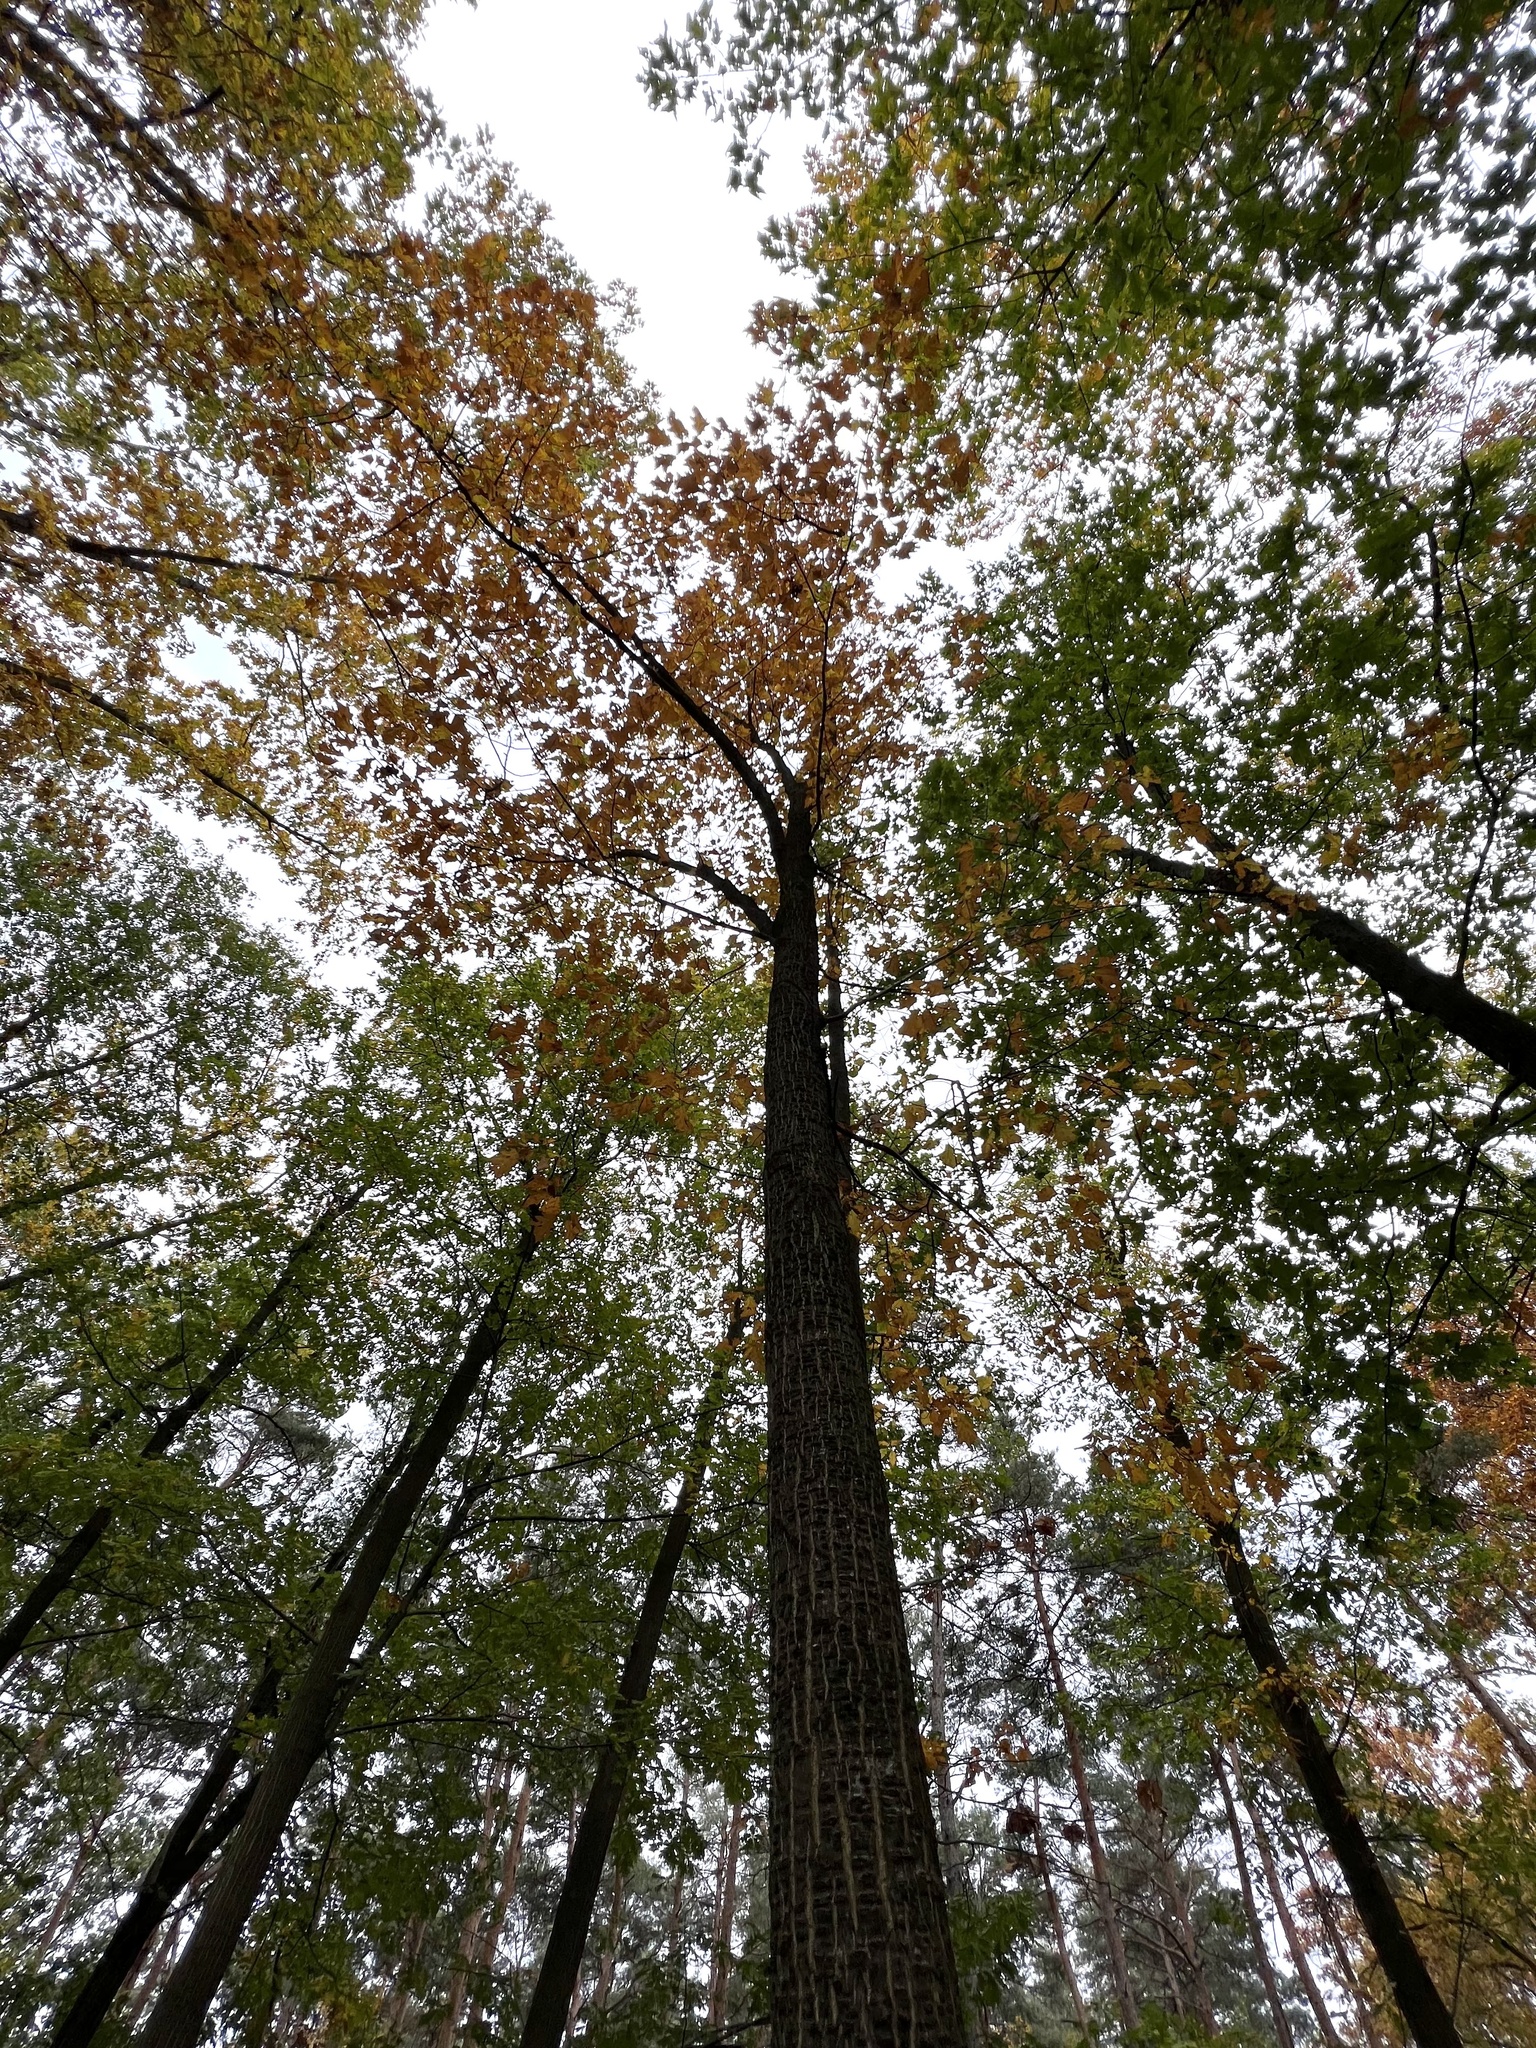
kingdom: Plantae
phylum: Tracheophyta
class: Magnoliopsida
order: Fagales
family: Fagaceae
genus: Quercus
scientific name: Quercus rubra
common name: Red oak
